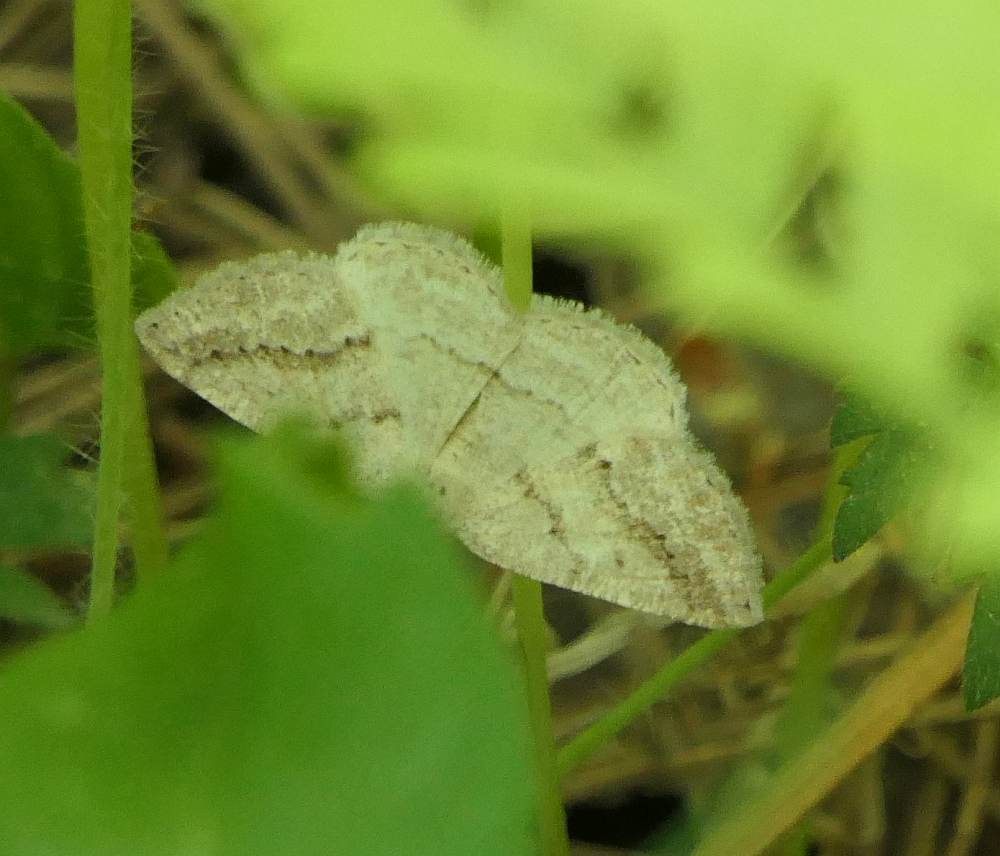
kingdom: Animalia
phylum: Arthropoda
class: Insecta
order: Lepidoptera
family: Geometridae
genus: Lomographa
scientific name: Lomographa glomeraria
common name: Gray spring moth
